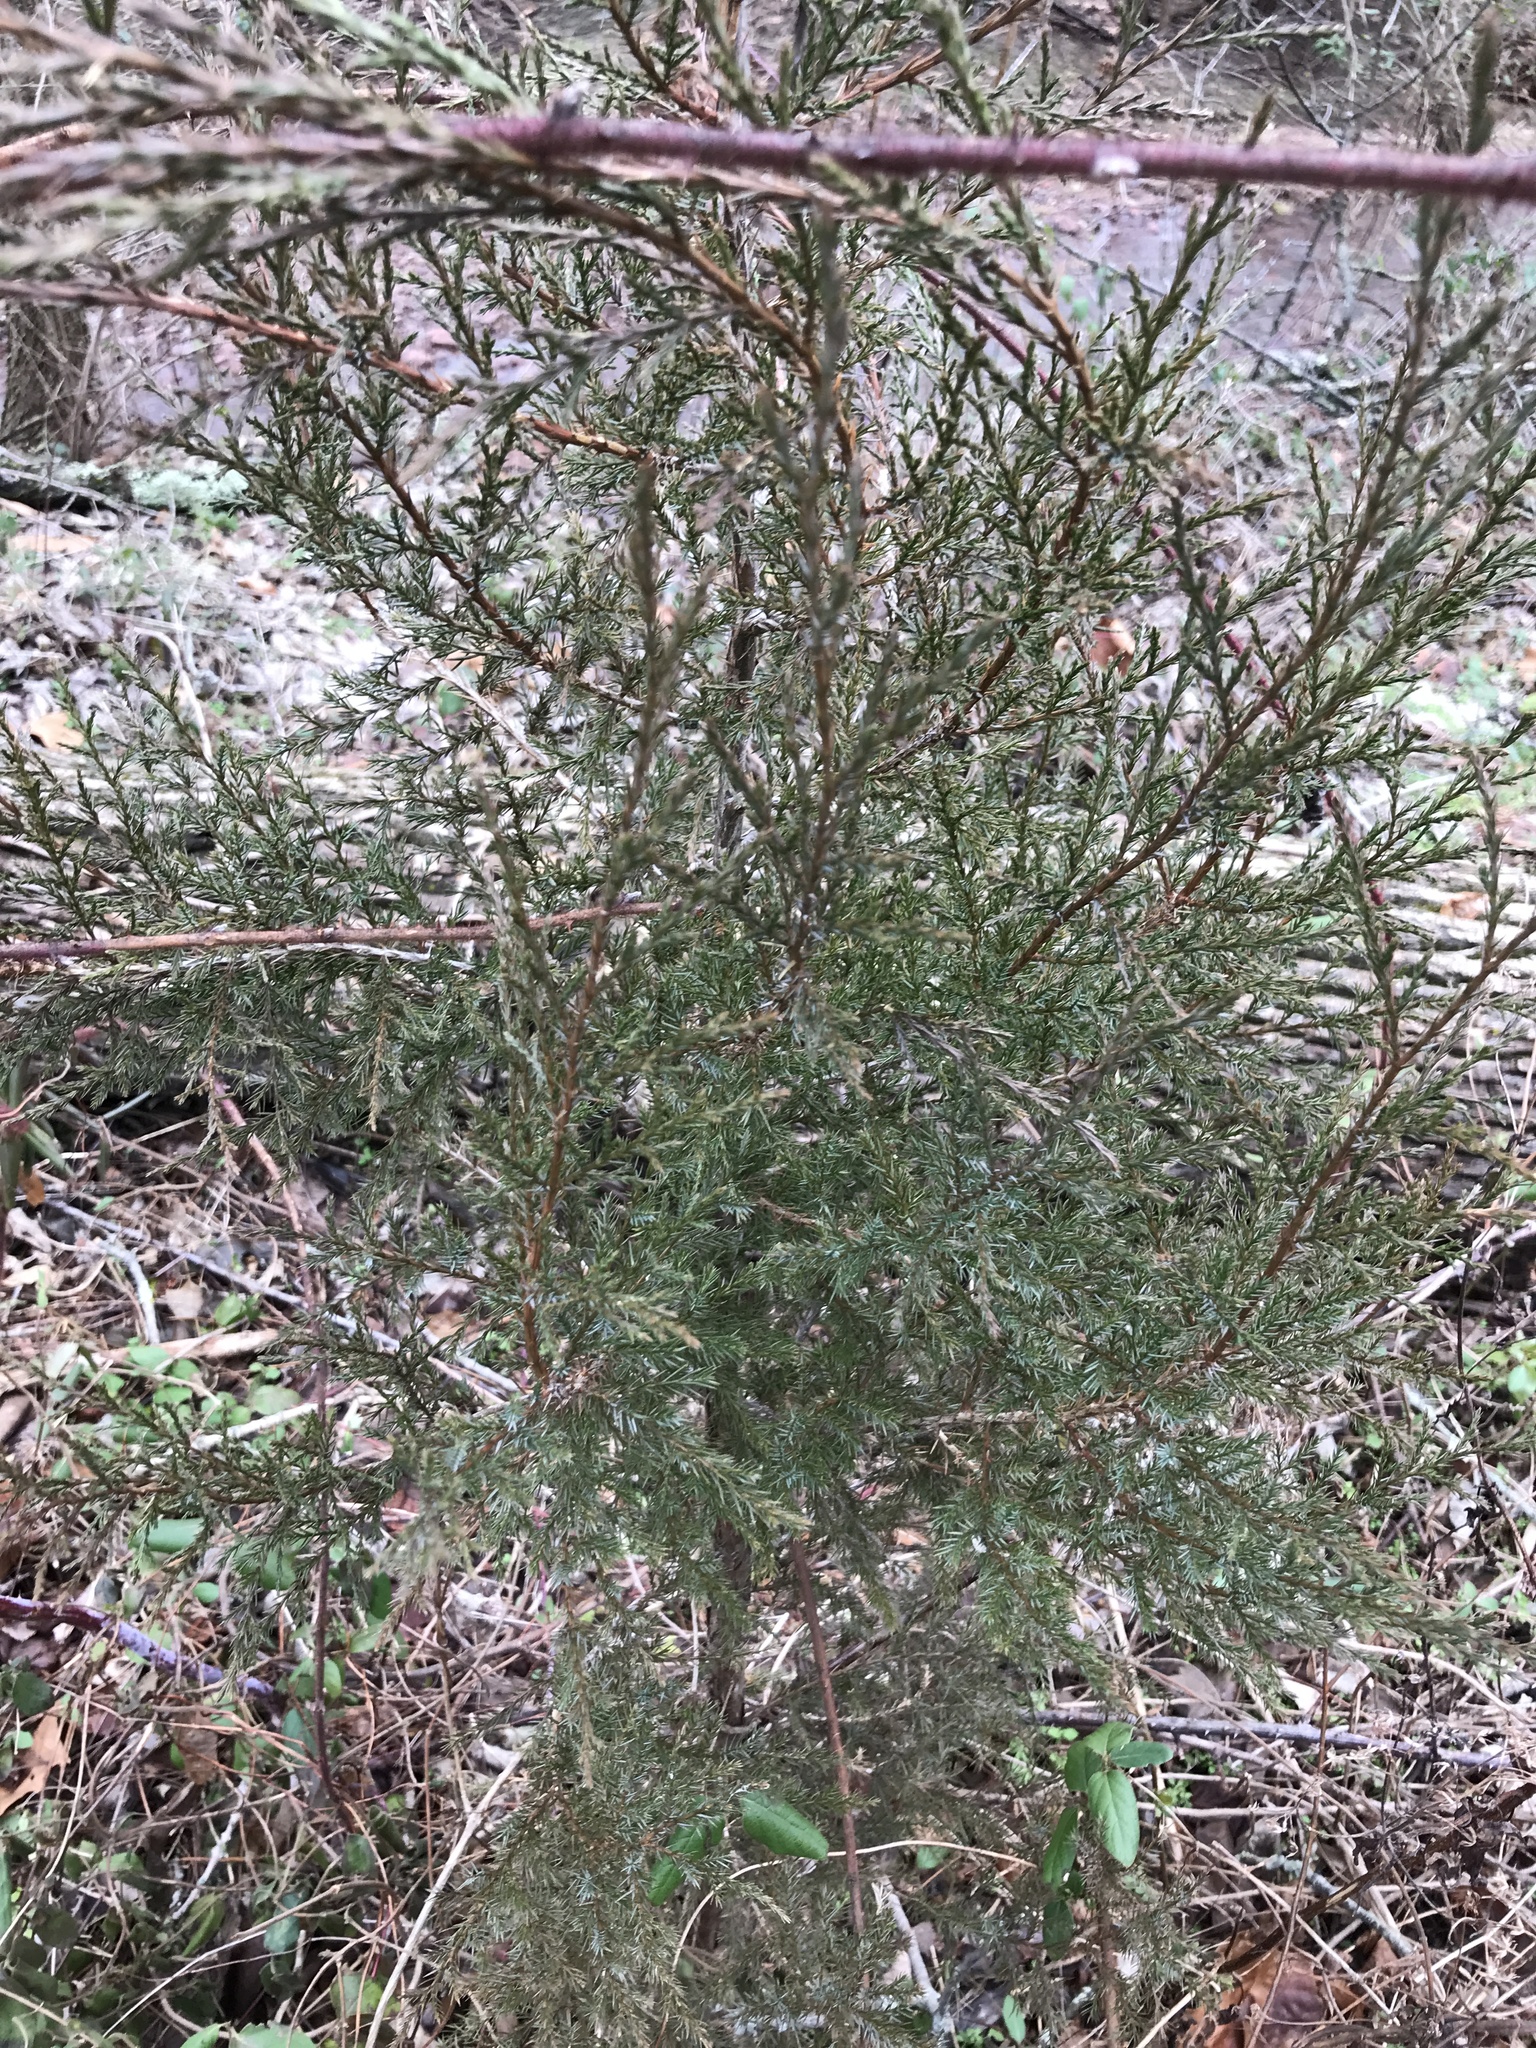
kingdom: Plantae
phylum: Tracheophyta
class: Pinopsida
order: Pinales
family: Cupressaceae
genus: Juniperus
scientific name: Juniperus virginiana
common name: Red juniper
